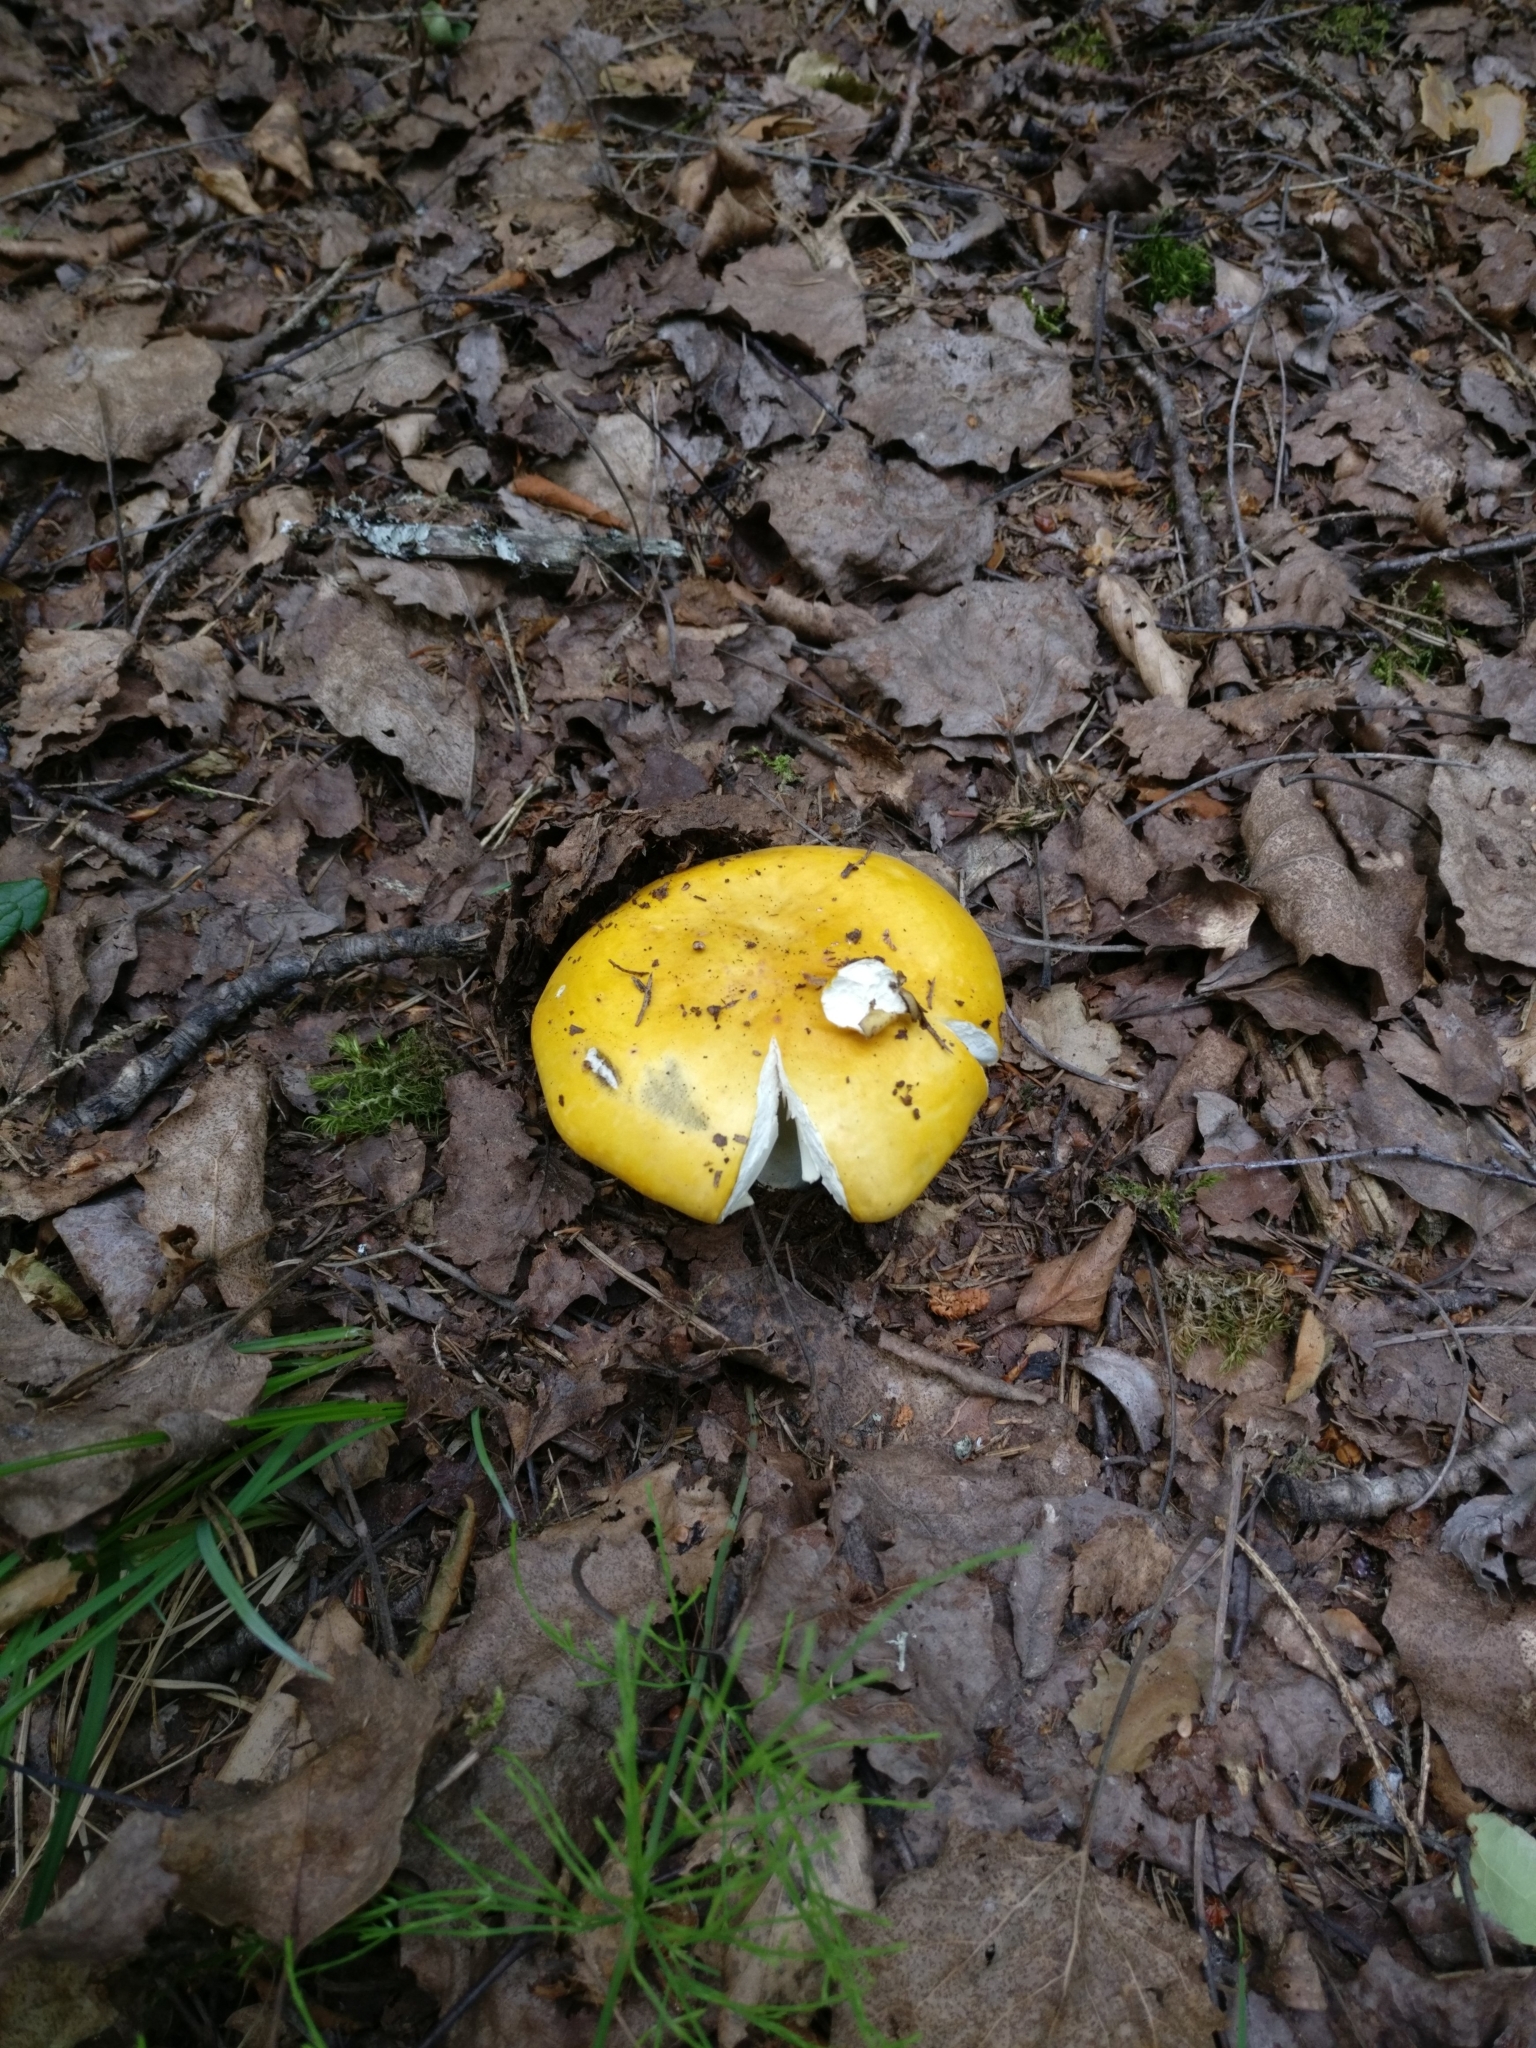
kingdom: Fungi
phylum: Basidiomycota
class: Agaricomycetes
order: Russulales
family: Russulaceae
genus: Russula
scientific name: Russula claroflava
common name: The yellow swamp brittlegill
